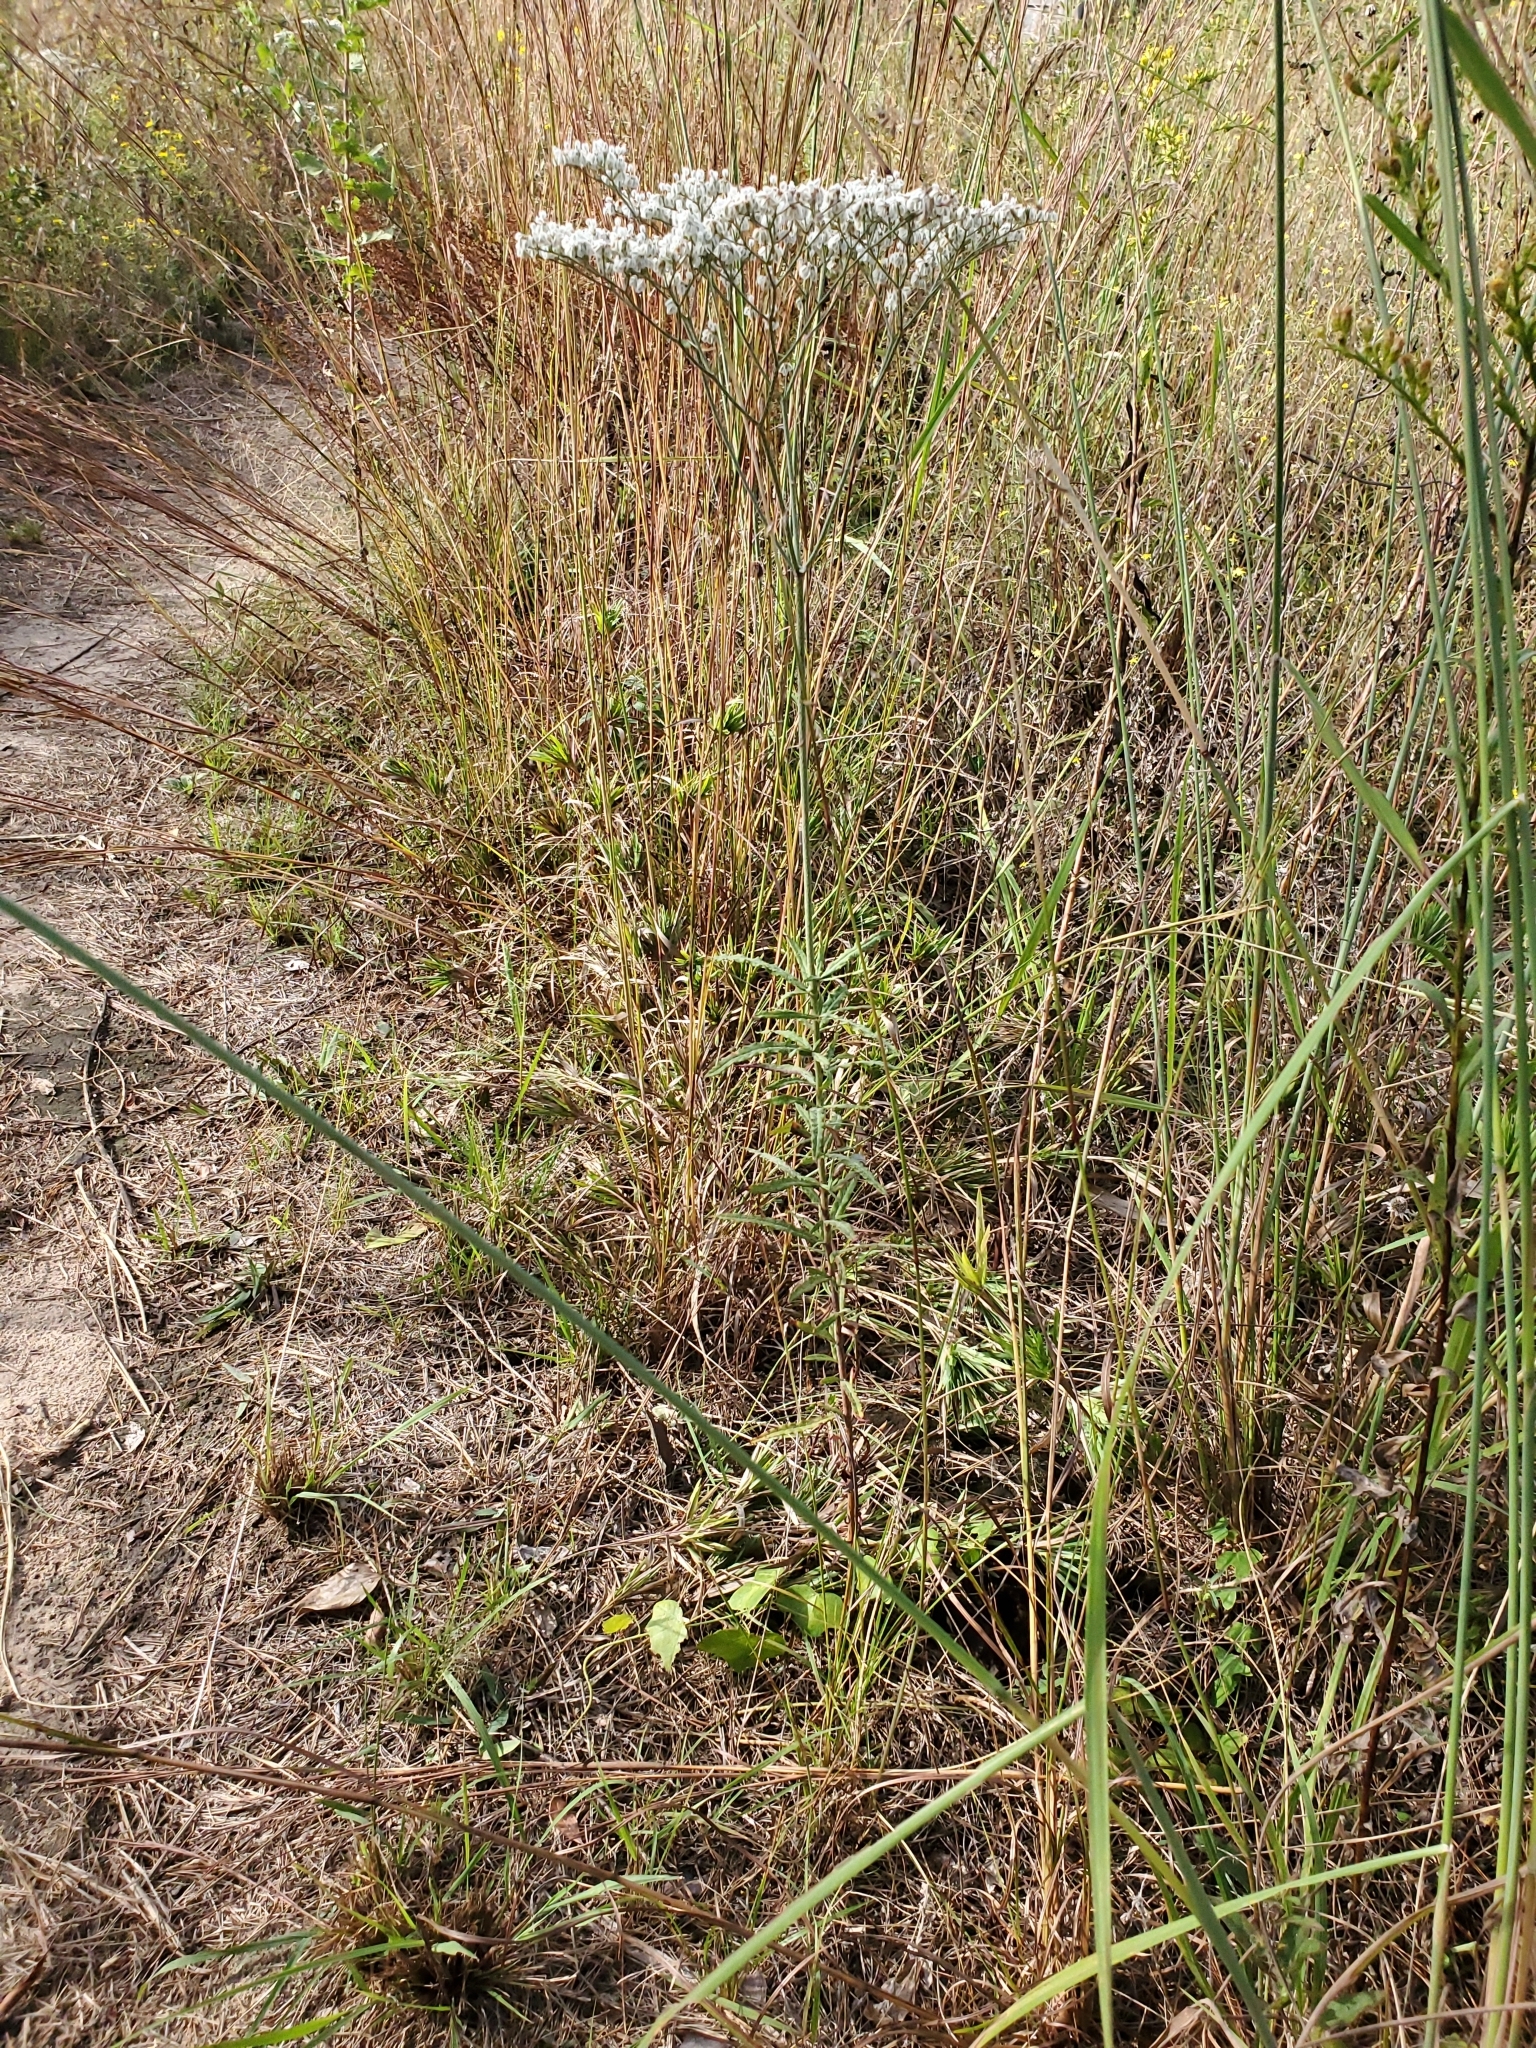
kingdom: Plantae
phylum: Tracheophyta
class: Magnoliopsida
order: Caryophyllales
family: Polygonaceae
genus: Eriogonum
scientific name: Eriogonum multiflorum
